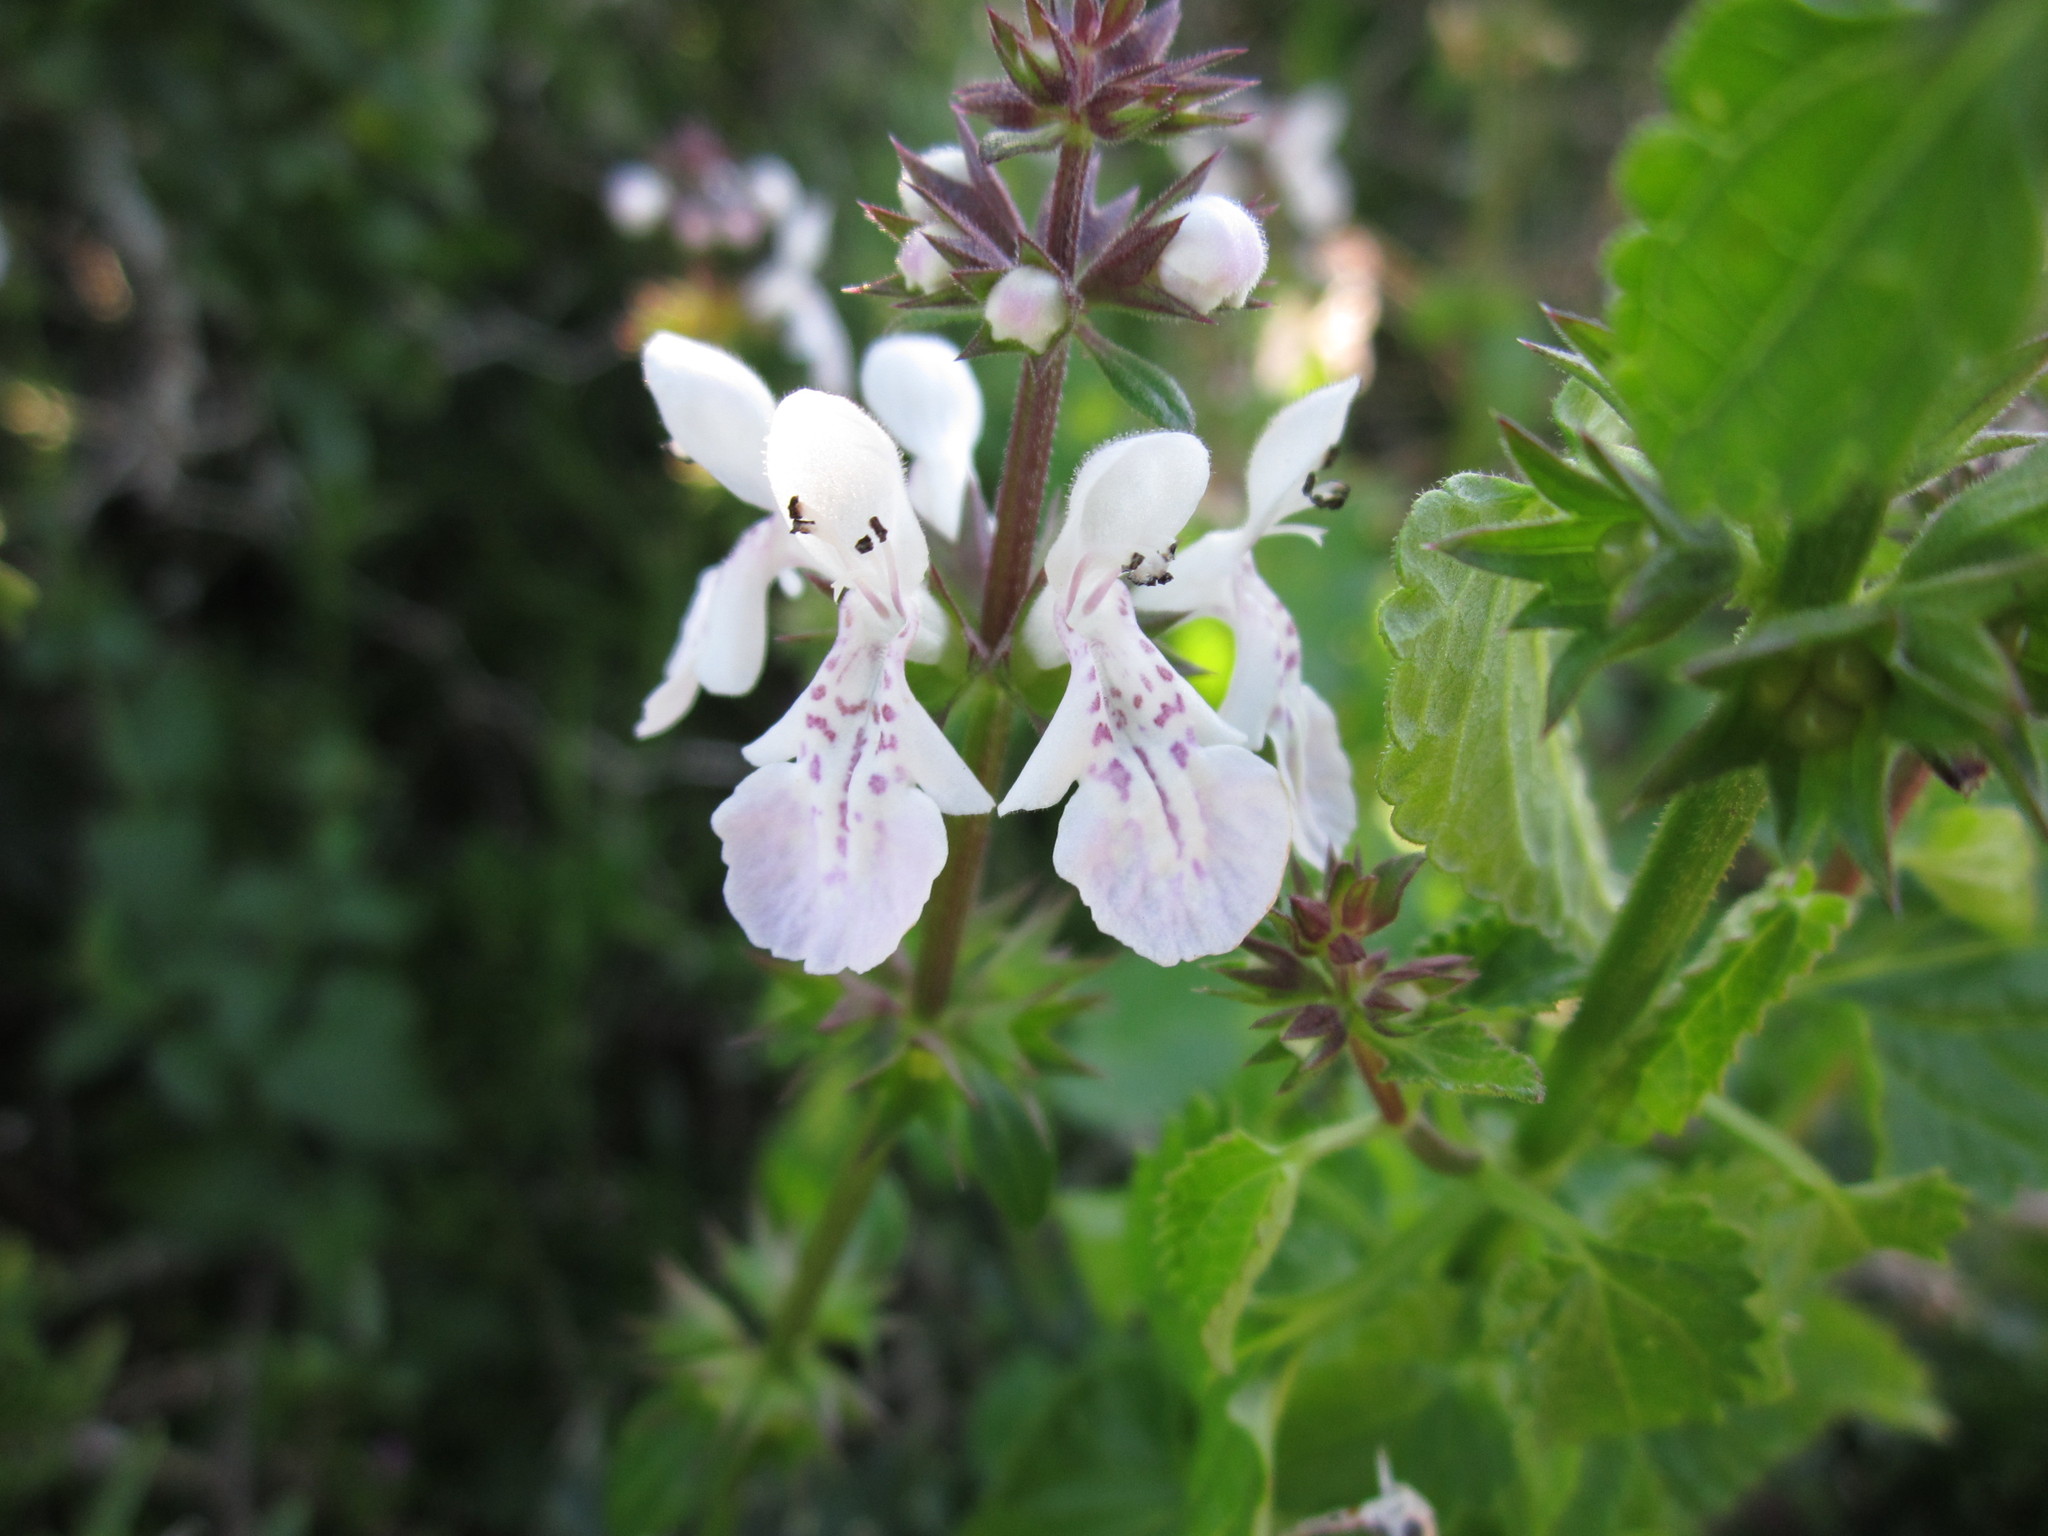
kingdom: Plantae
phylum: Tracheophyta
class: Magnoliopsida
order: Lamiales
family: Lamiaceae
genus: Stachys
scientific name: Stachys aethiopica
